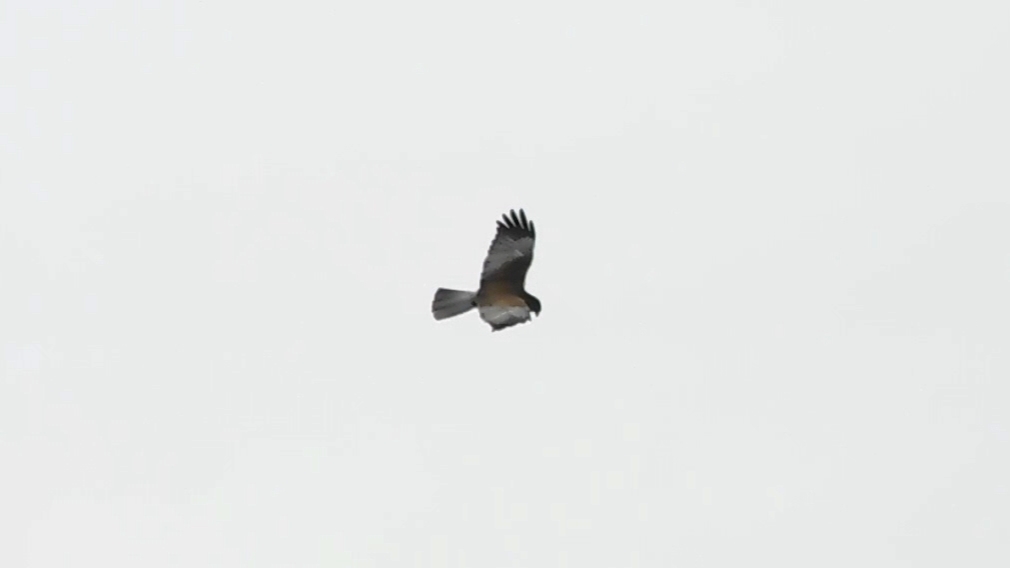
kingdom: Animalia
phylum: Chordata
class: Aves
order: Accipitriformes
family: Accipitridae
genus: Circus
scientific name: Circus aeruginosus
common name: Western marsh harrier
